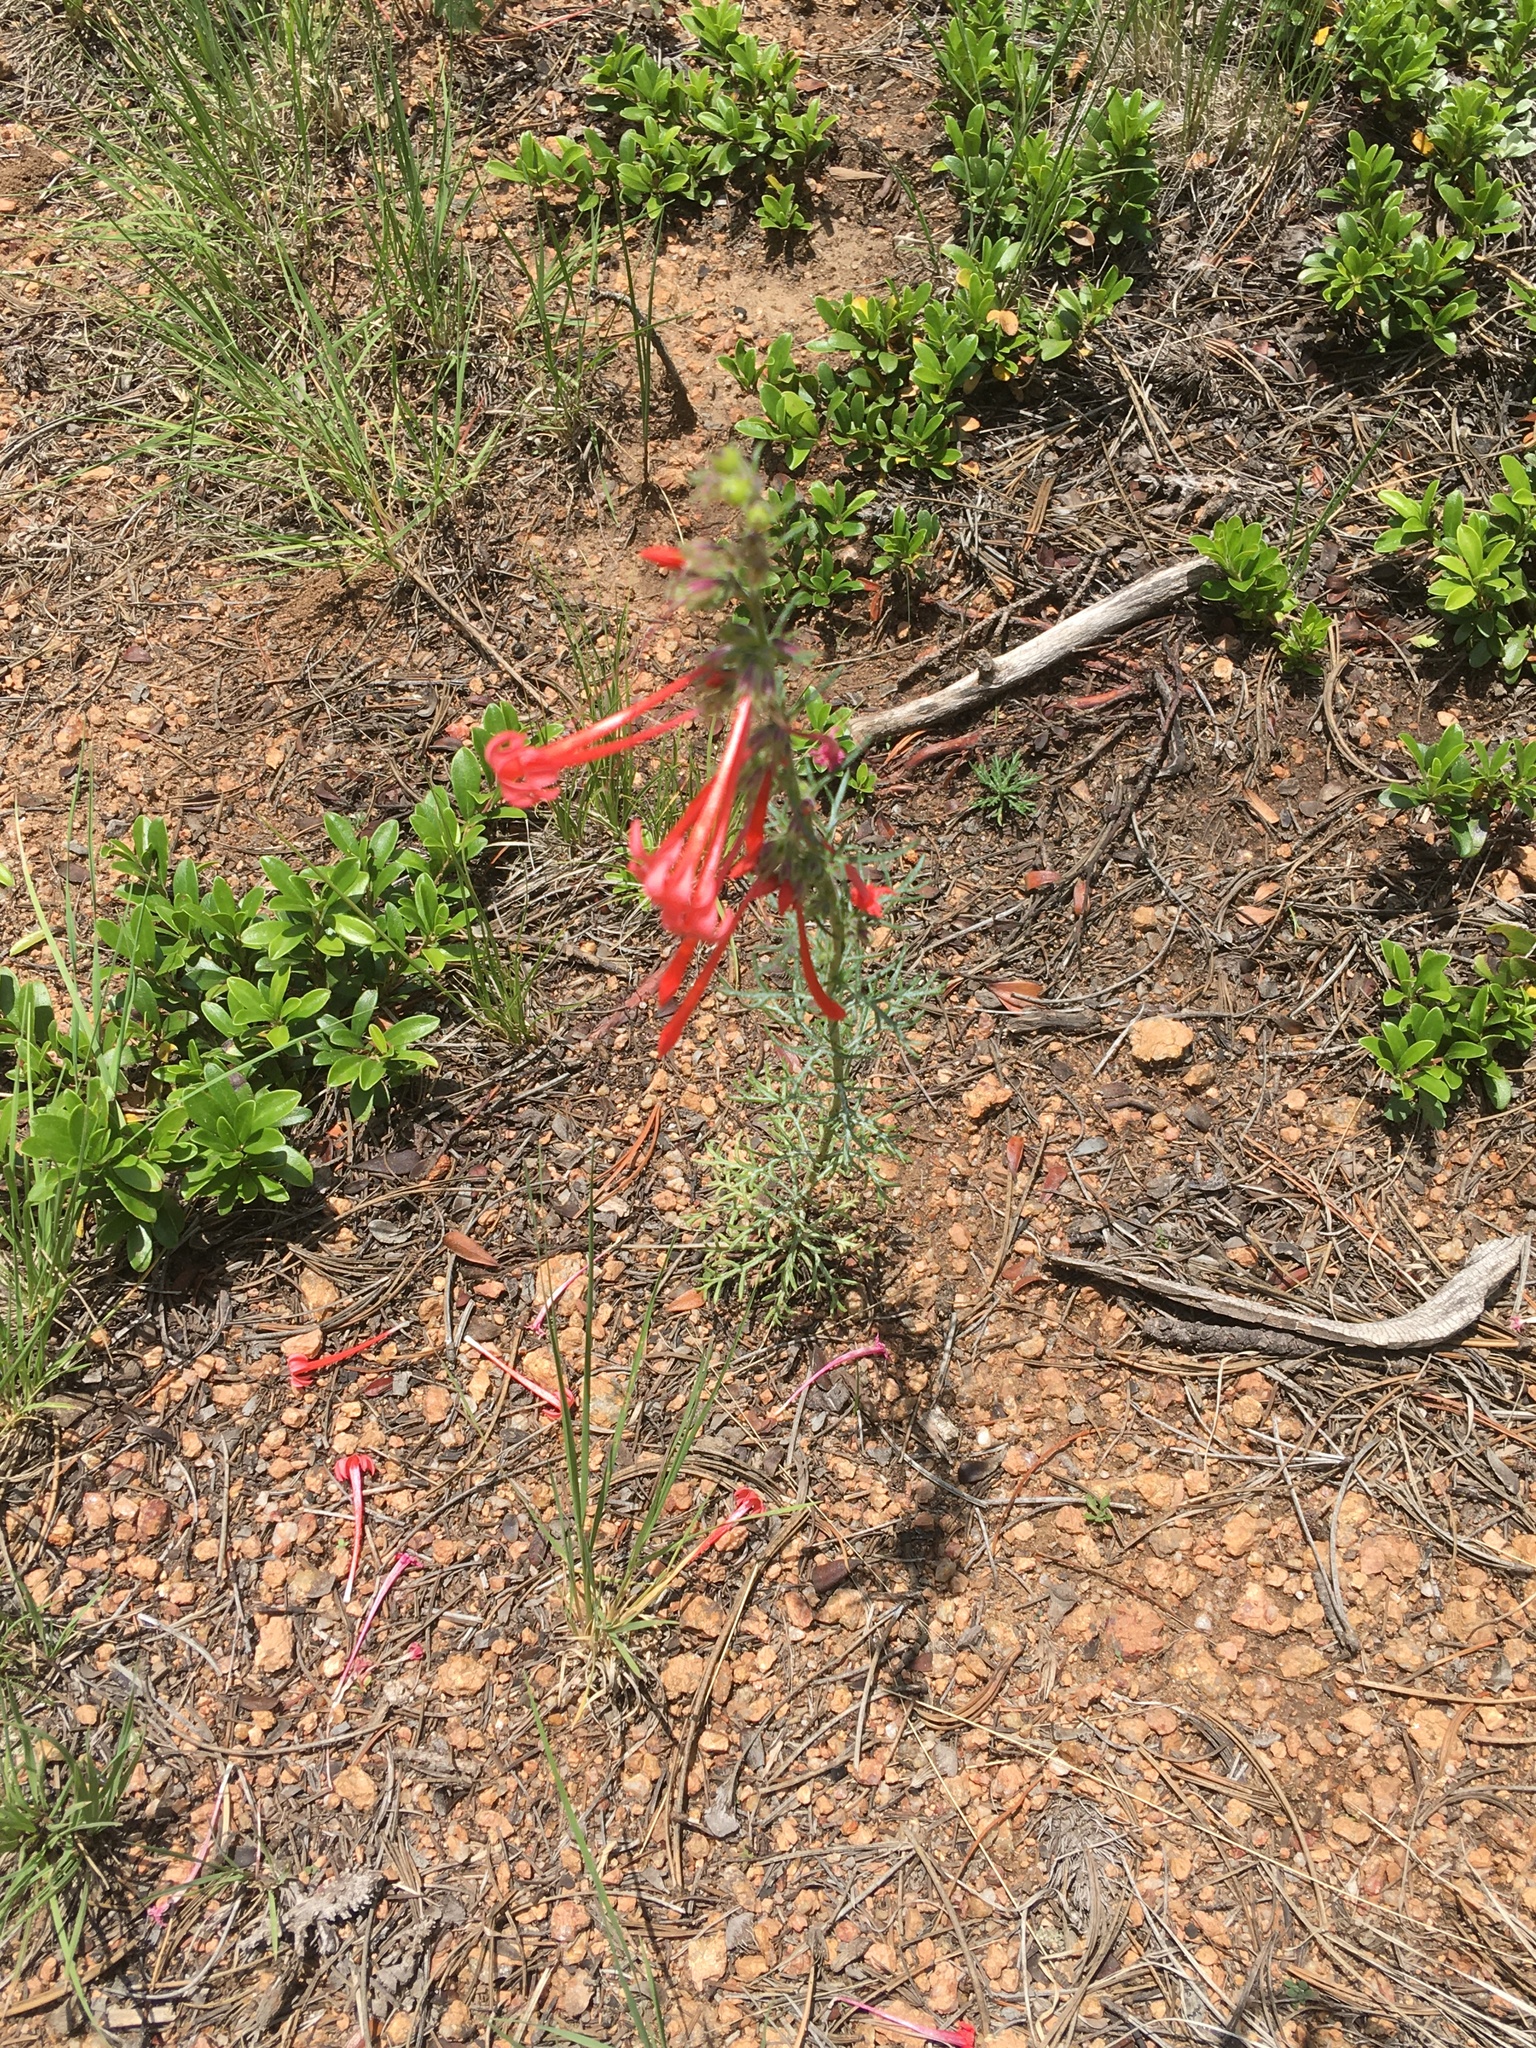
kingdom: Plantae
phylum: Tracheophyta
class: Magnoliopsida
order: Ericales
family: Polemoniaceae
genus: Ipomopsis
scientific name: Ipomopsis aggregata
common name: Scarlet gilia
